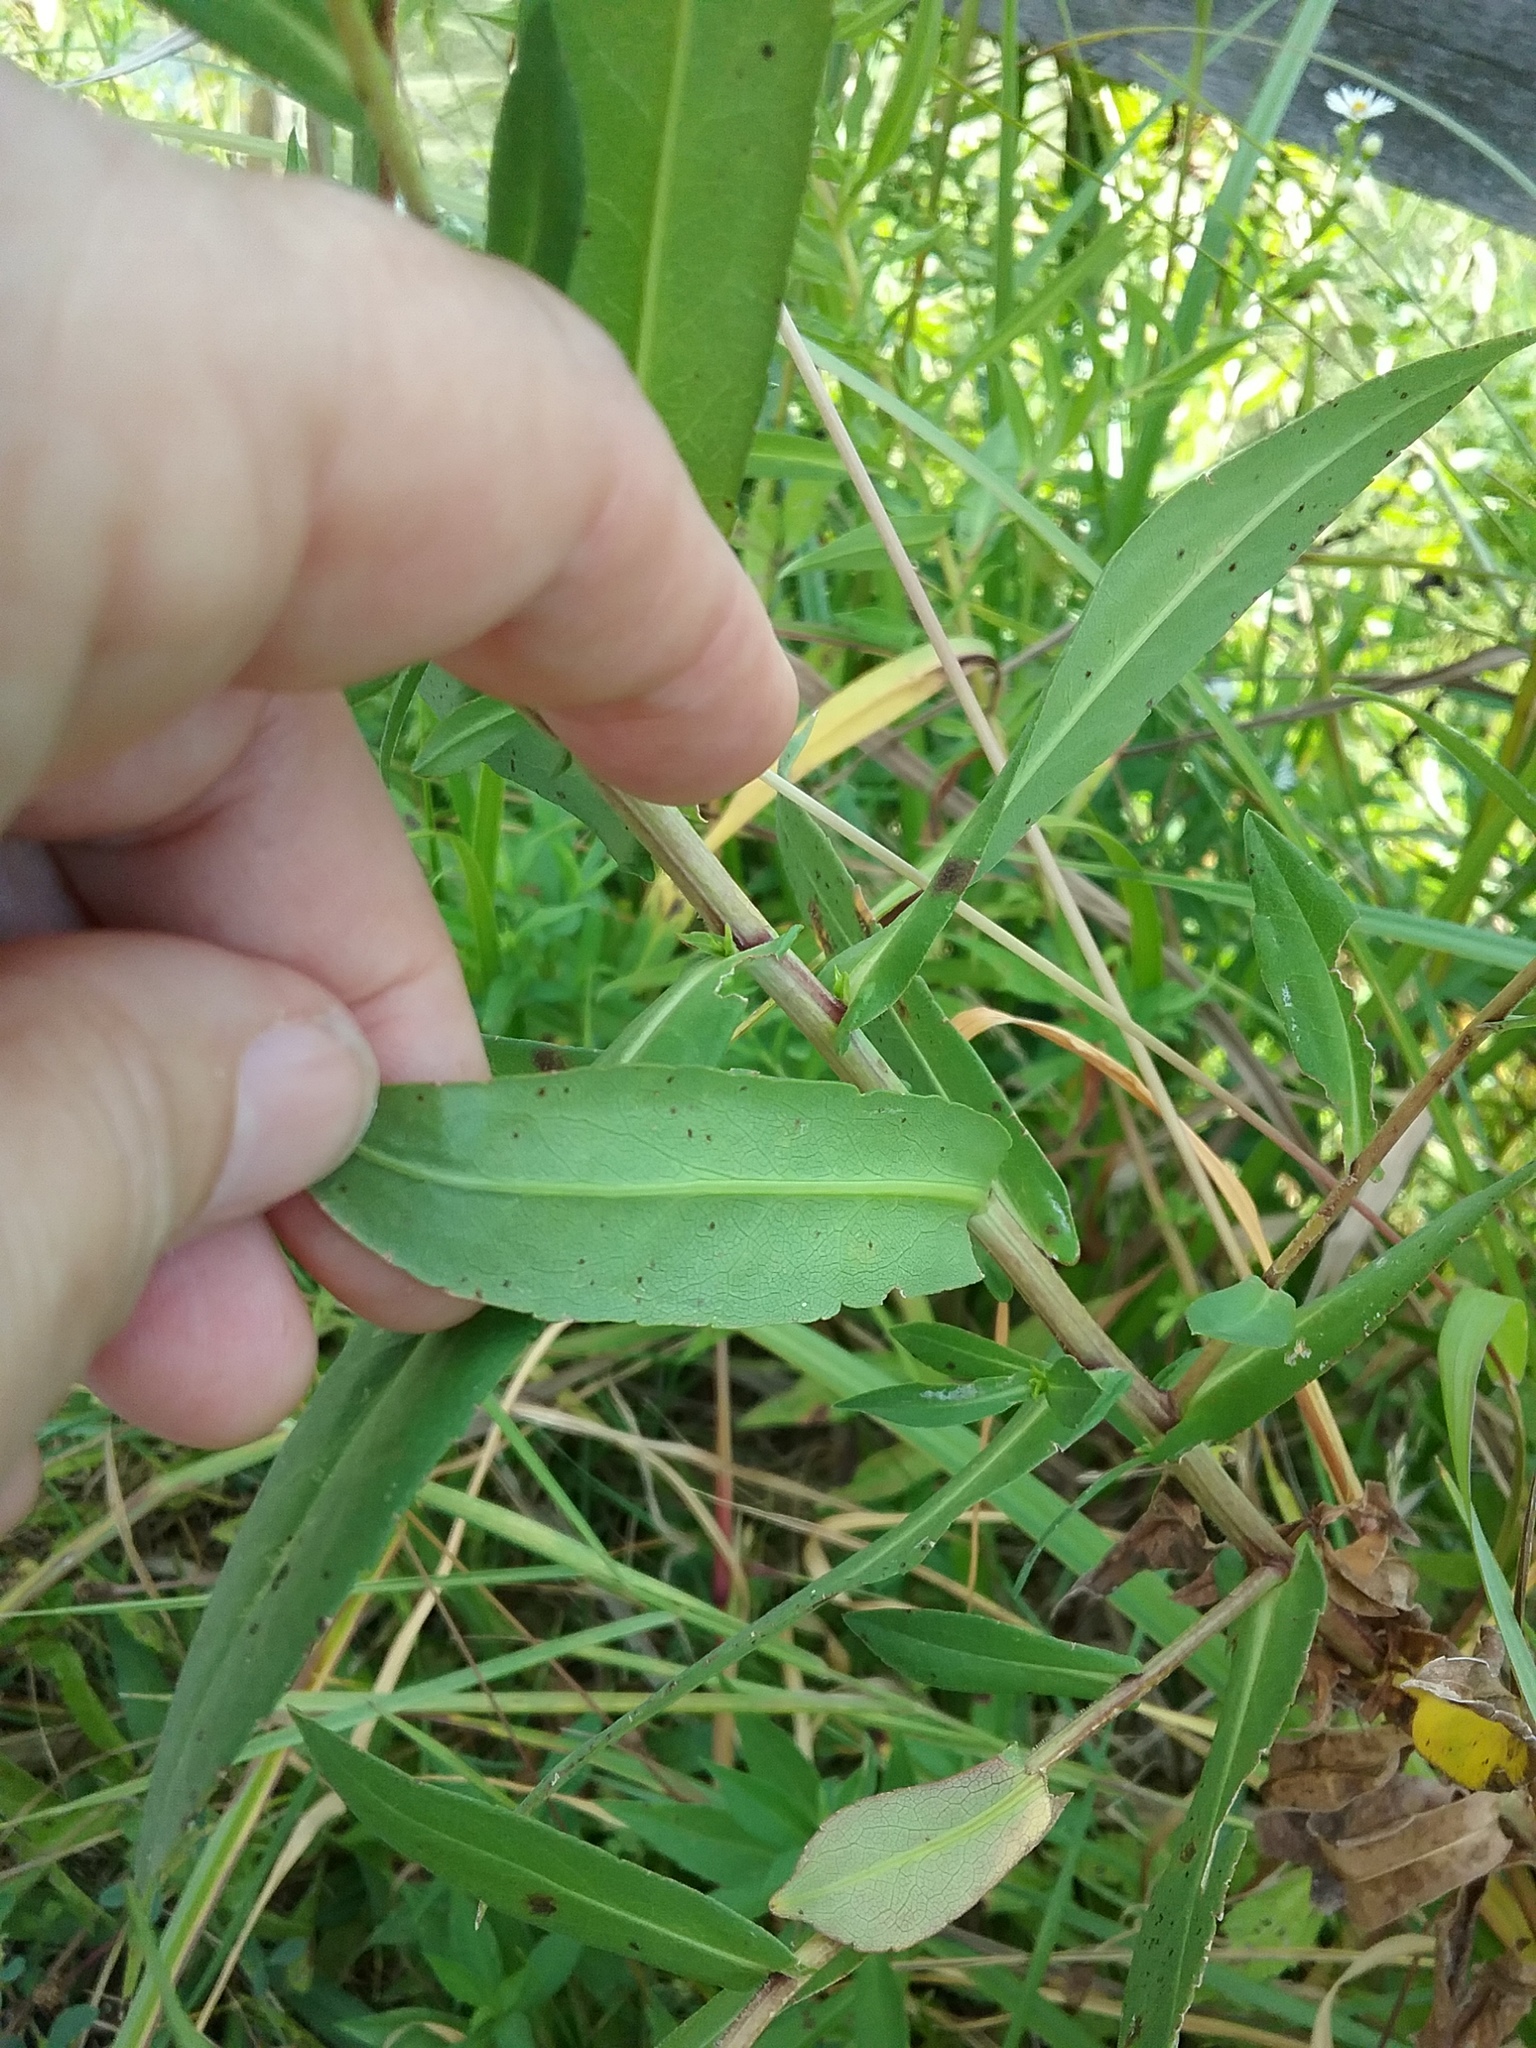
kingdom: Plantae
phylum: Tracheophyta
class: Magnoliopsida
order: Asterales
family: Asteraceae
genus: Symphyotrichum
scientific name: Symphyotrichum lanceolatum
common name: Panicled aster
